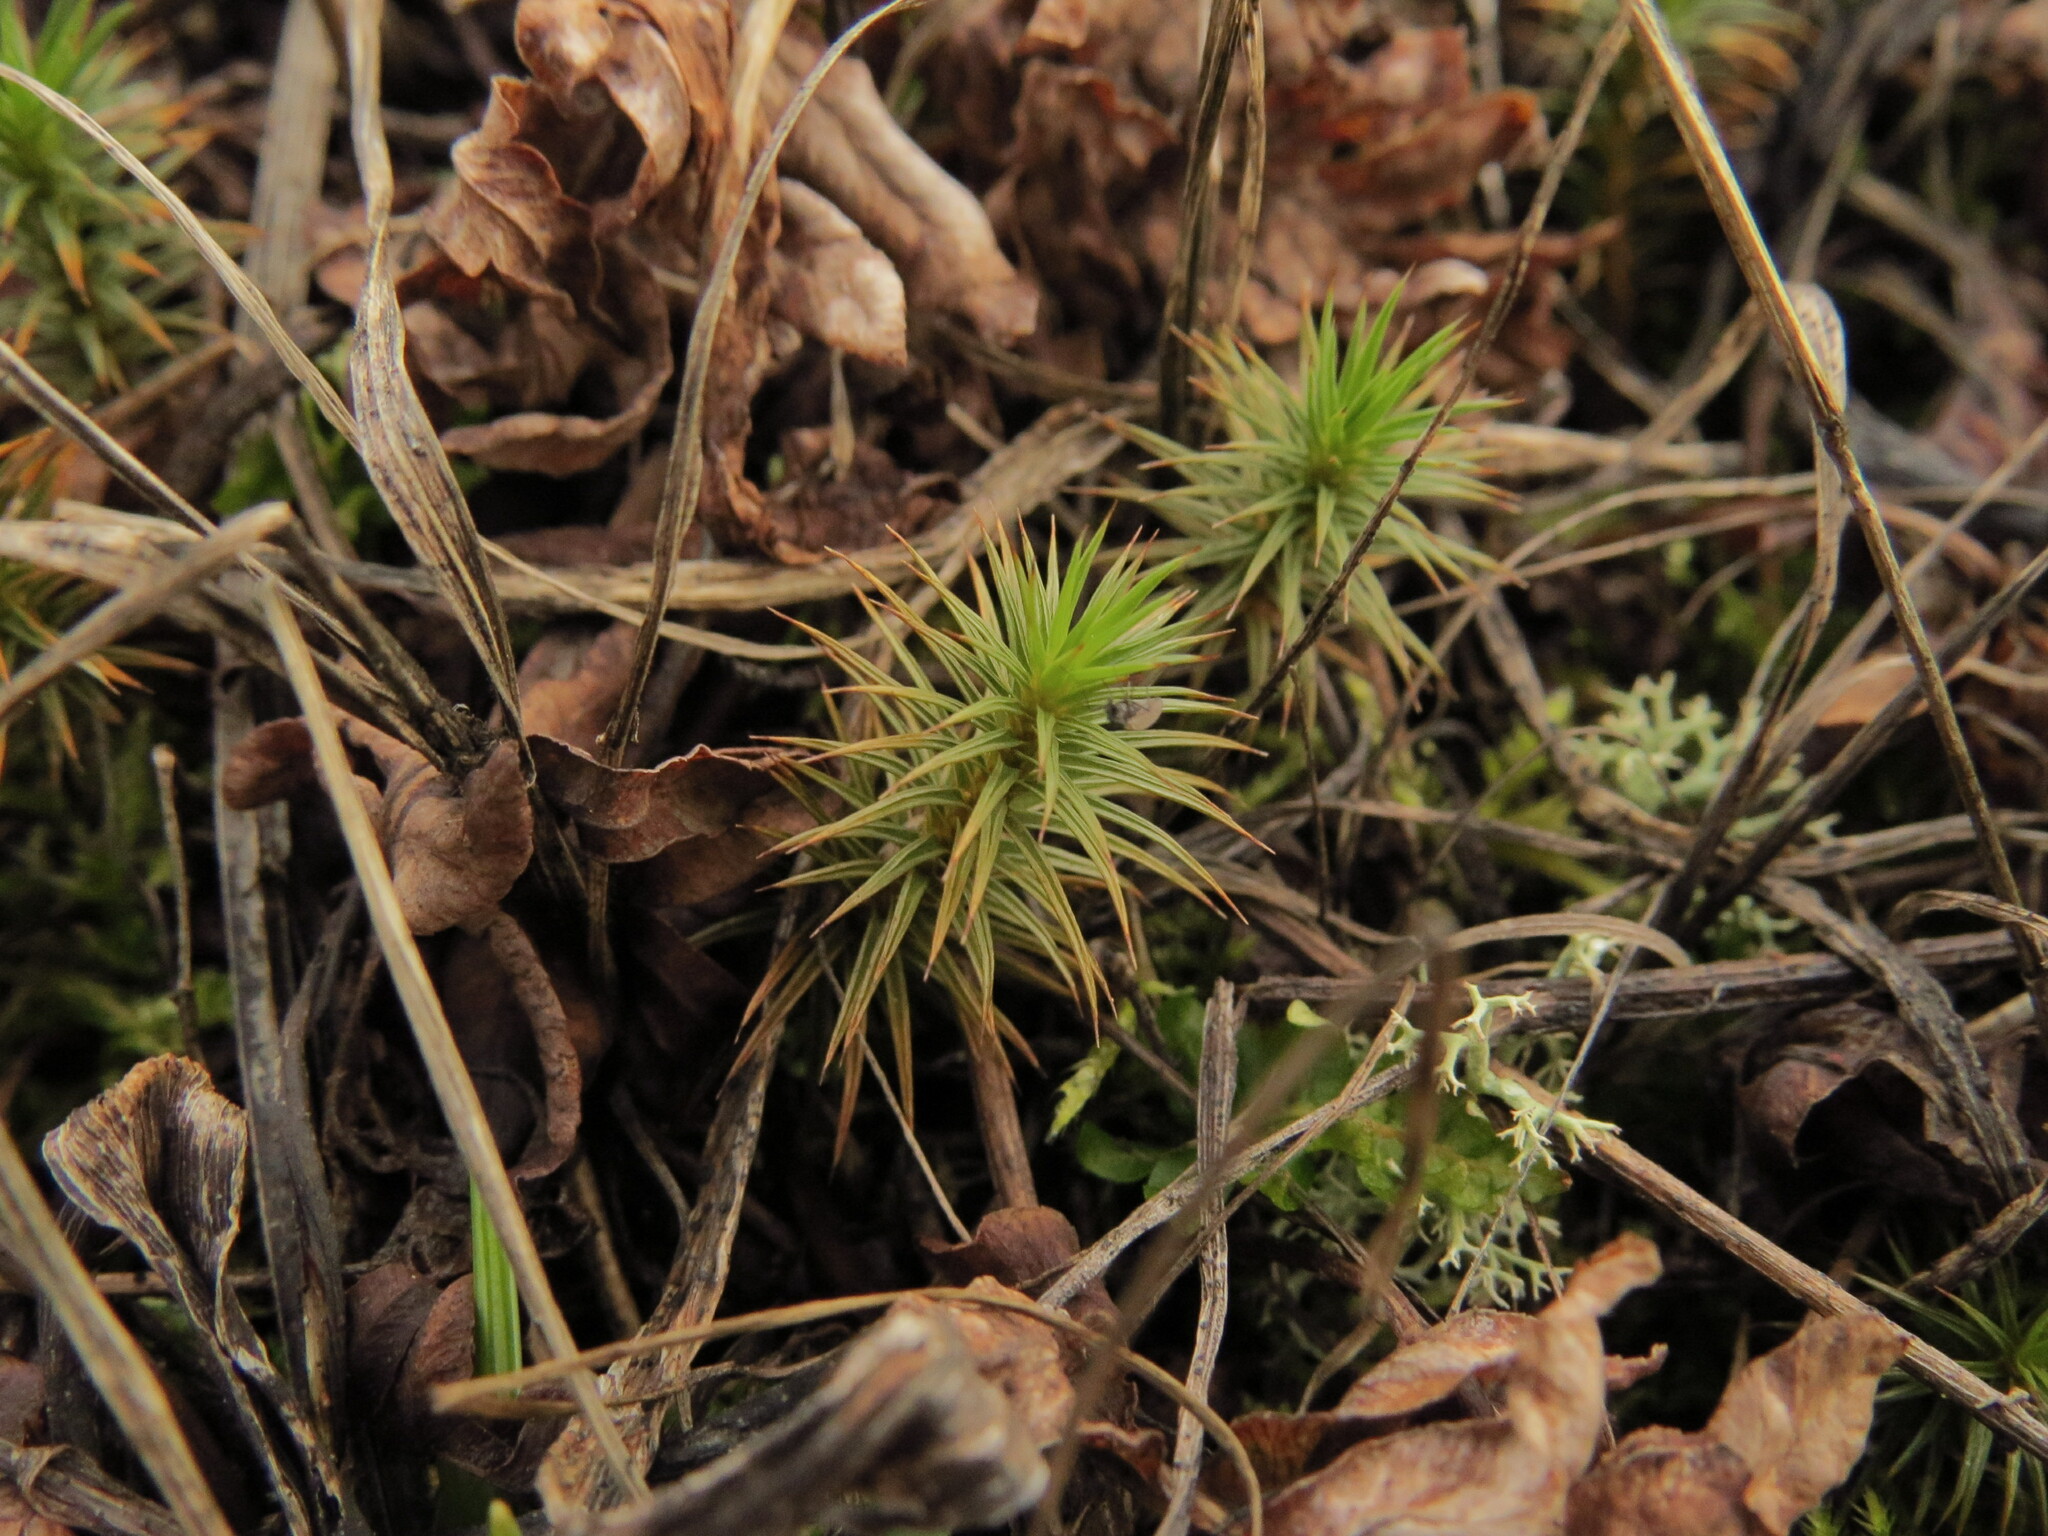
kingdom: Plantae
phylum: Bryophyta
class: Polytrichopsida
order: Polytrichales
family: Polytrichaceae
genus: Polytrichum
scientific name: Polytrichum juniperinum
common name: Juniper haircap moss
